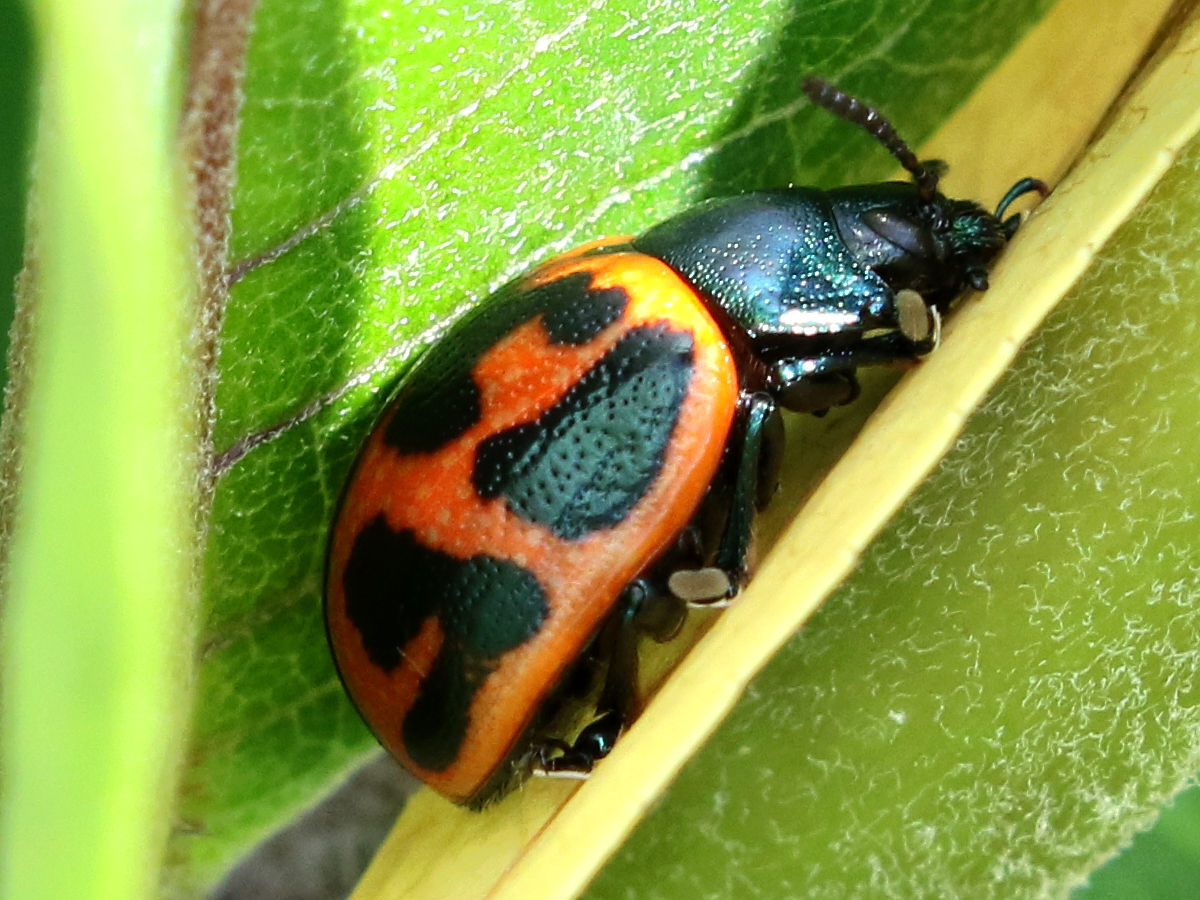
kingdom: Animalia
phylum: Arthropoda
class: Insecta
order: Coleoptera
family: Chrysomelidae
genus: Labidomera
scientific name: Labidomera clivicollis
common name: Swamp milkweed leaf beetle
